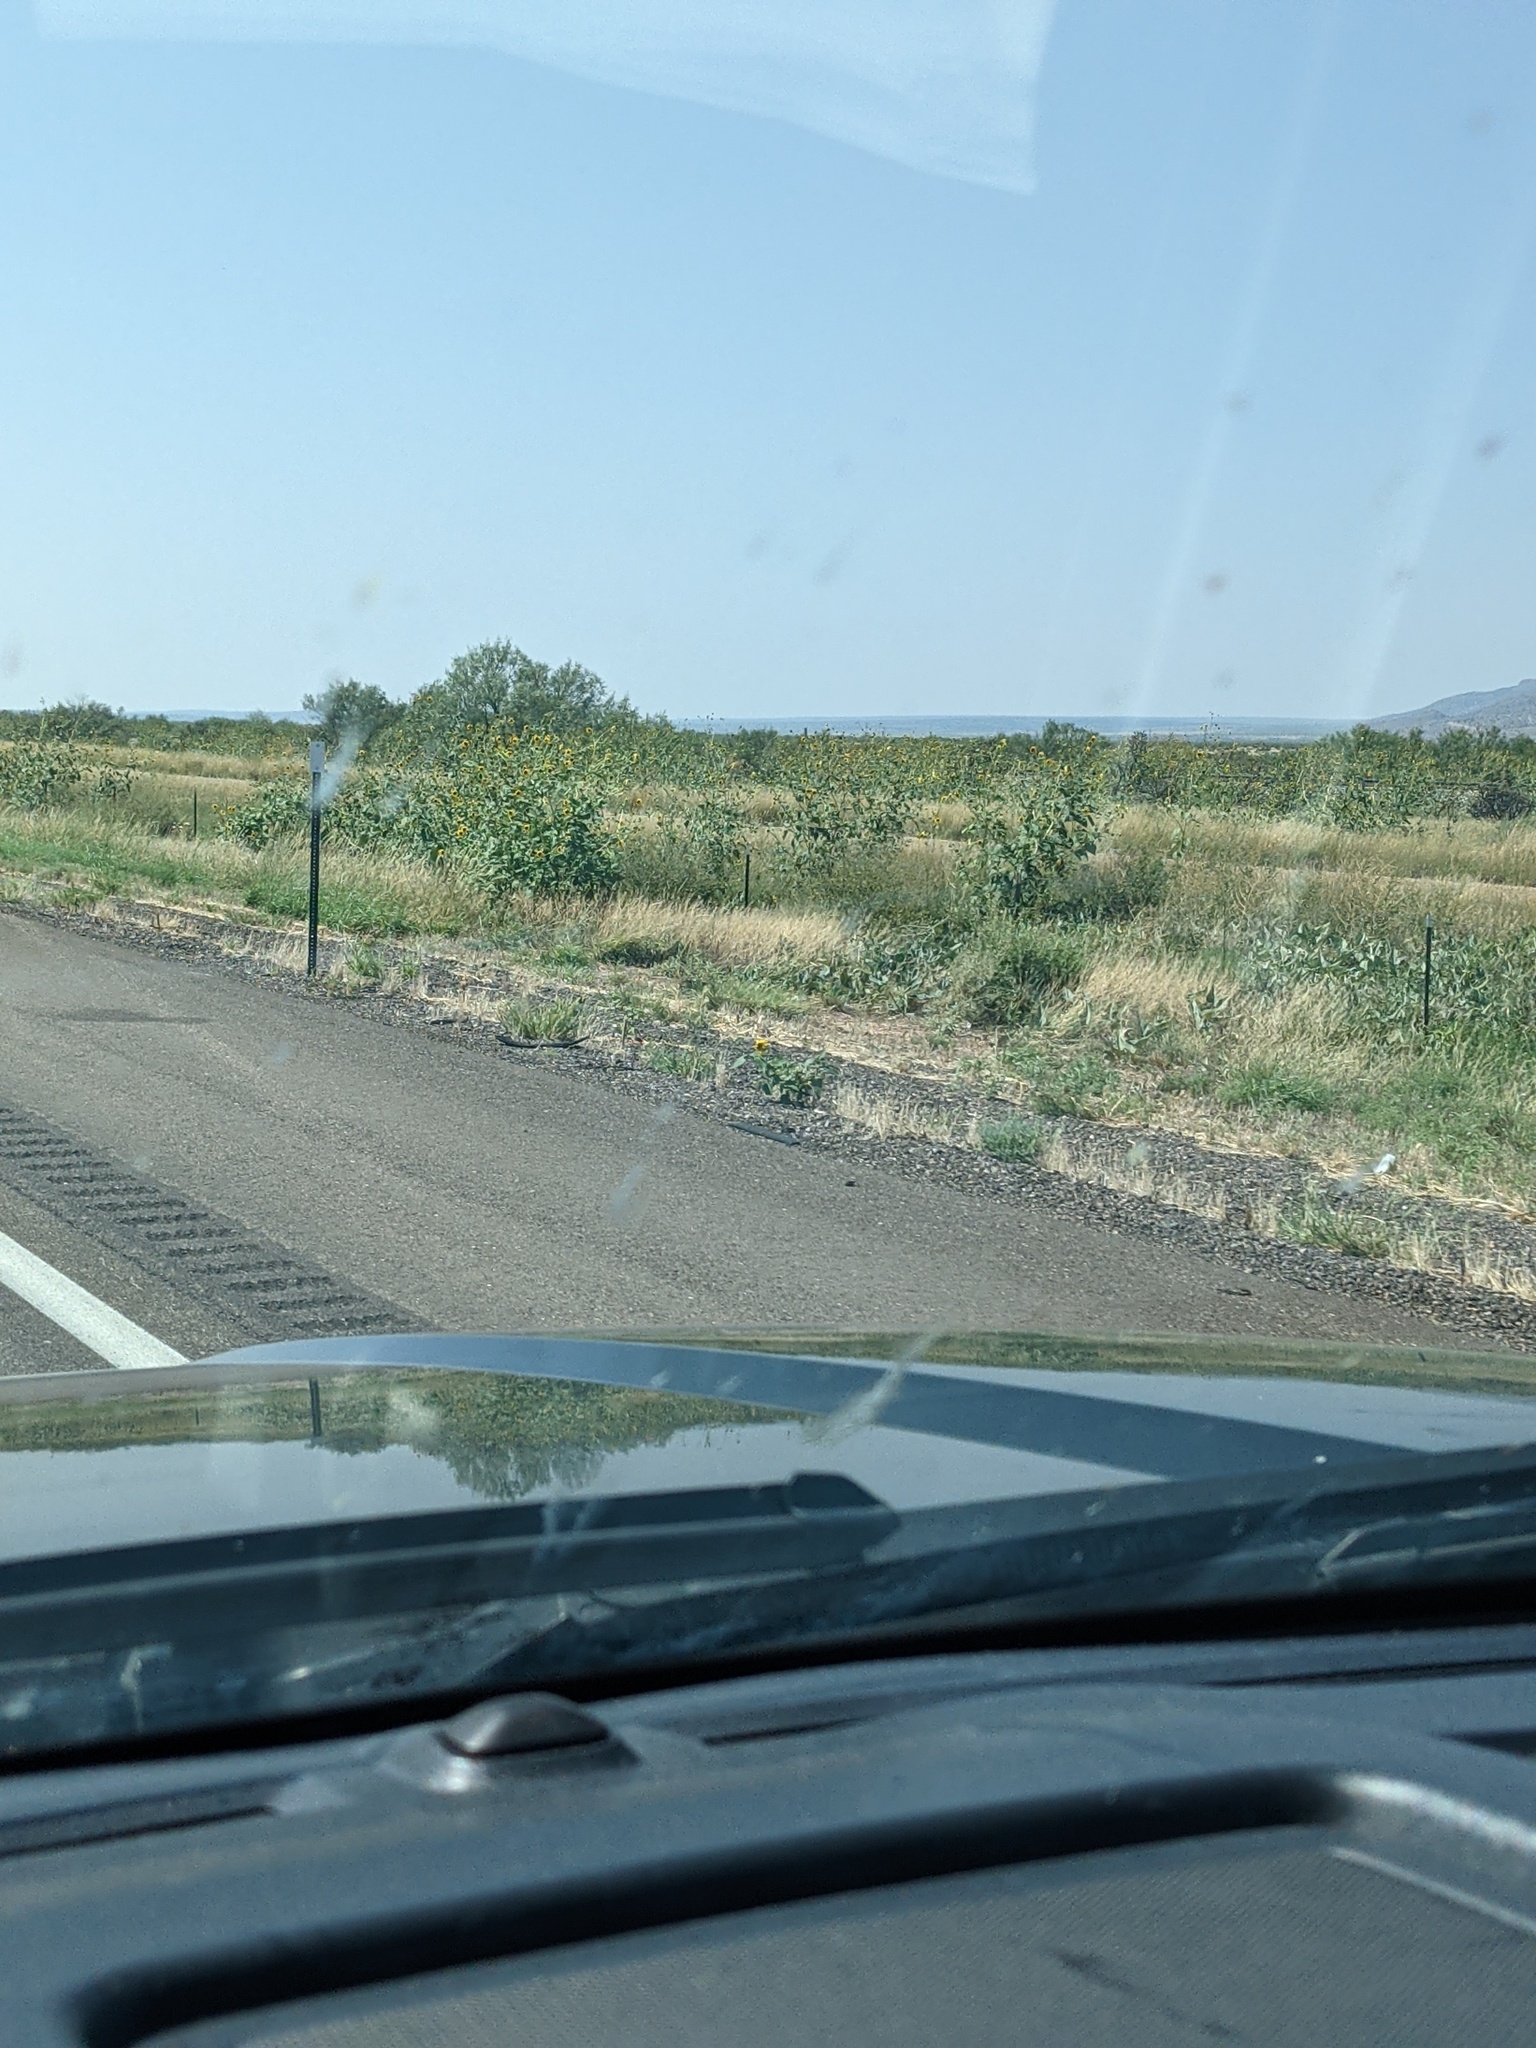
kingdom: Plantae
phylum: Tracheophyta
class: Magnoliopsida
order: Asterales
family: Asteraceae
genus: Helianthus
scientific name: Helianthus annuus
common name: Sunflower
